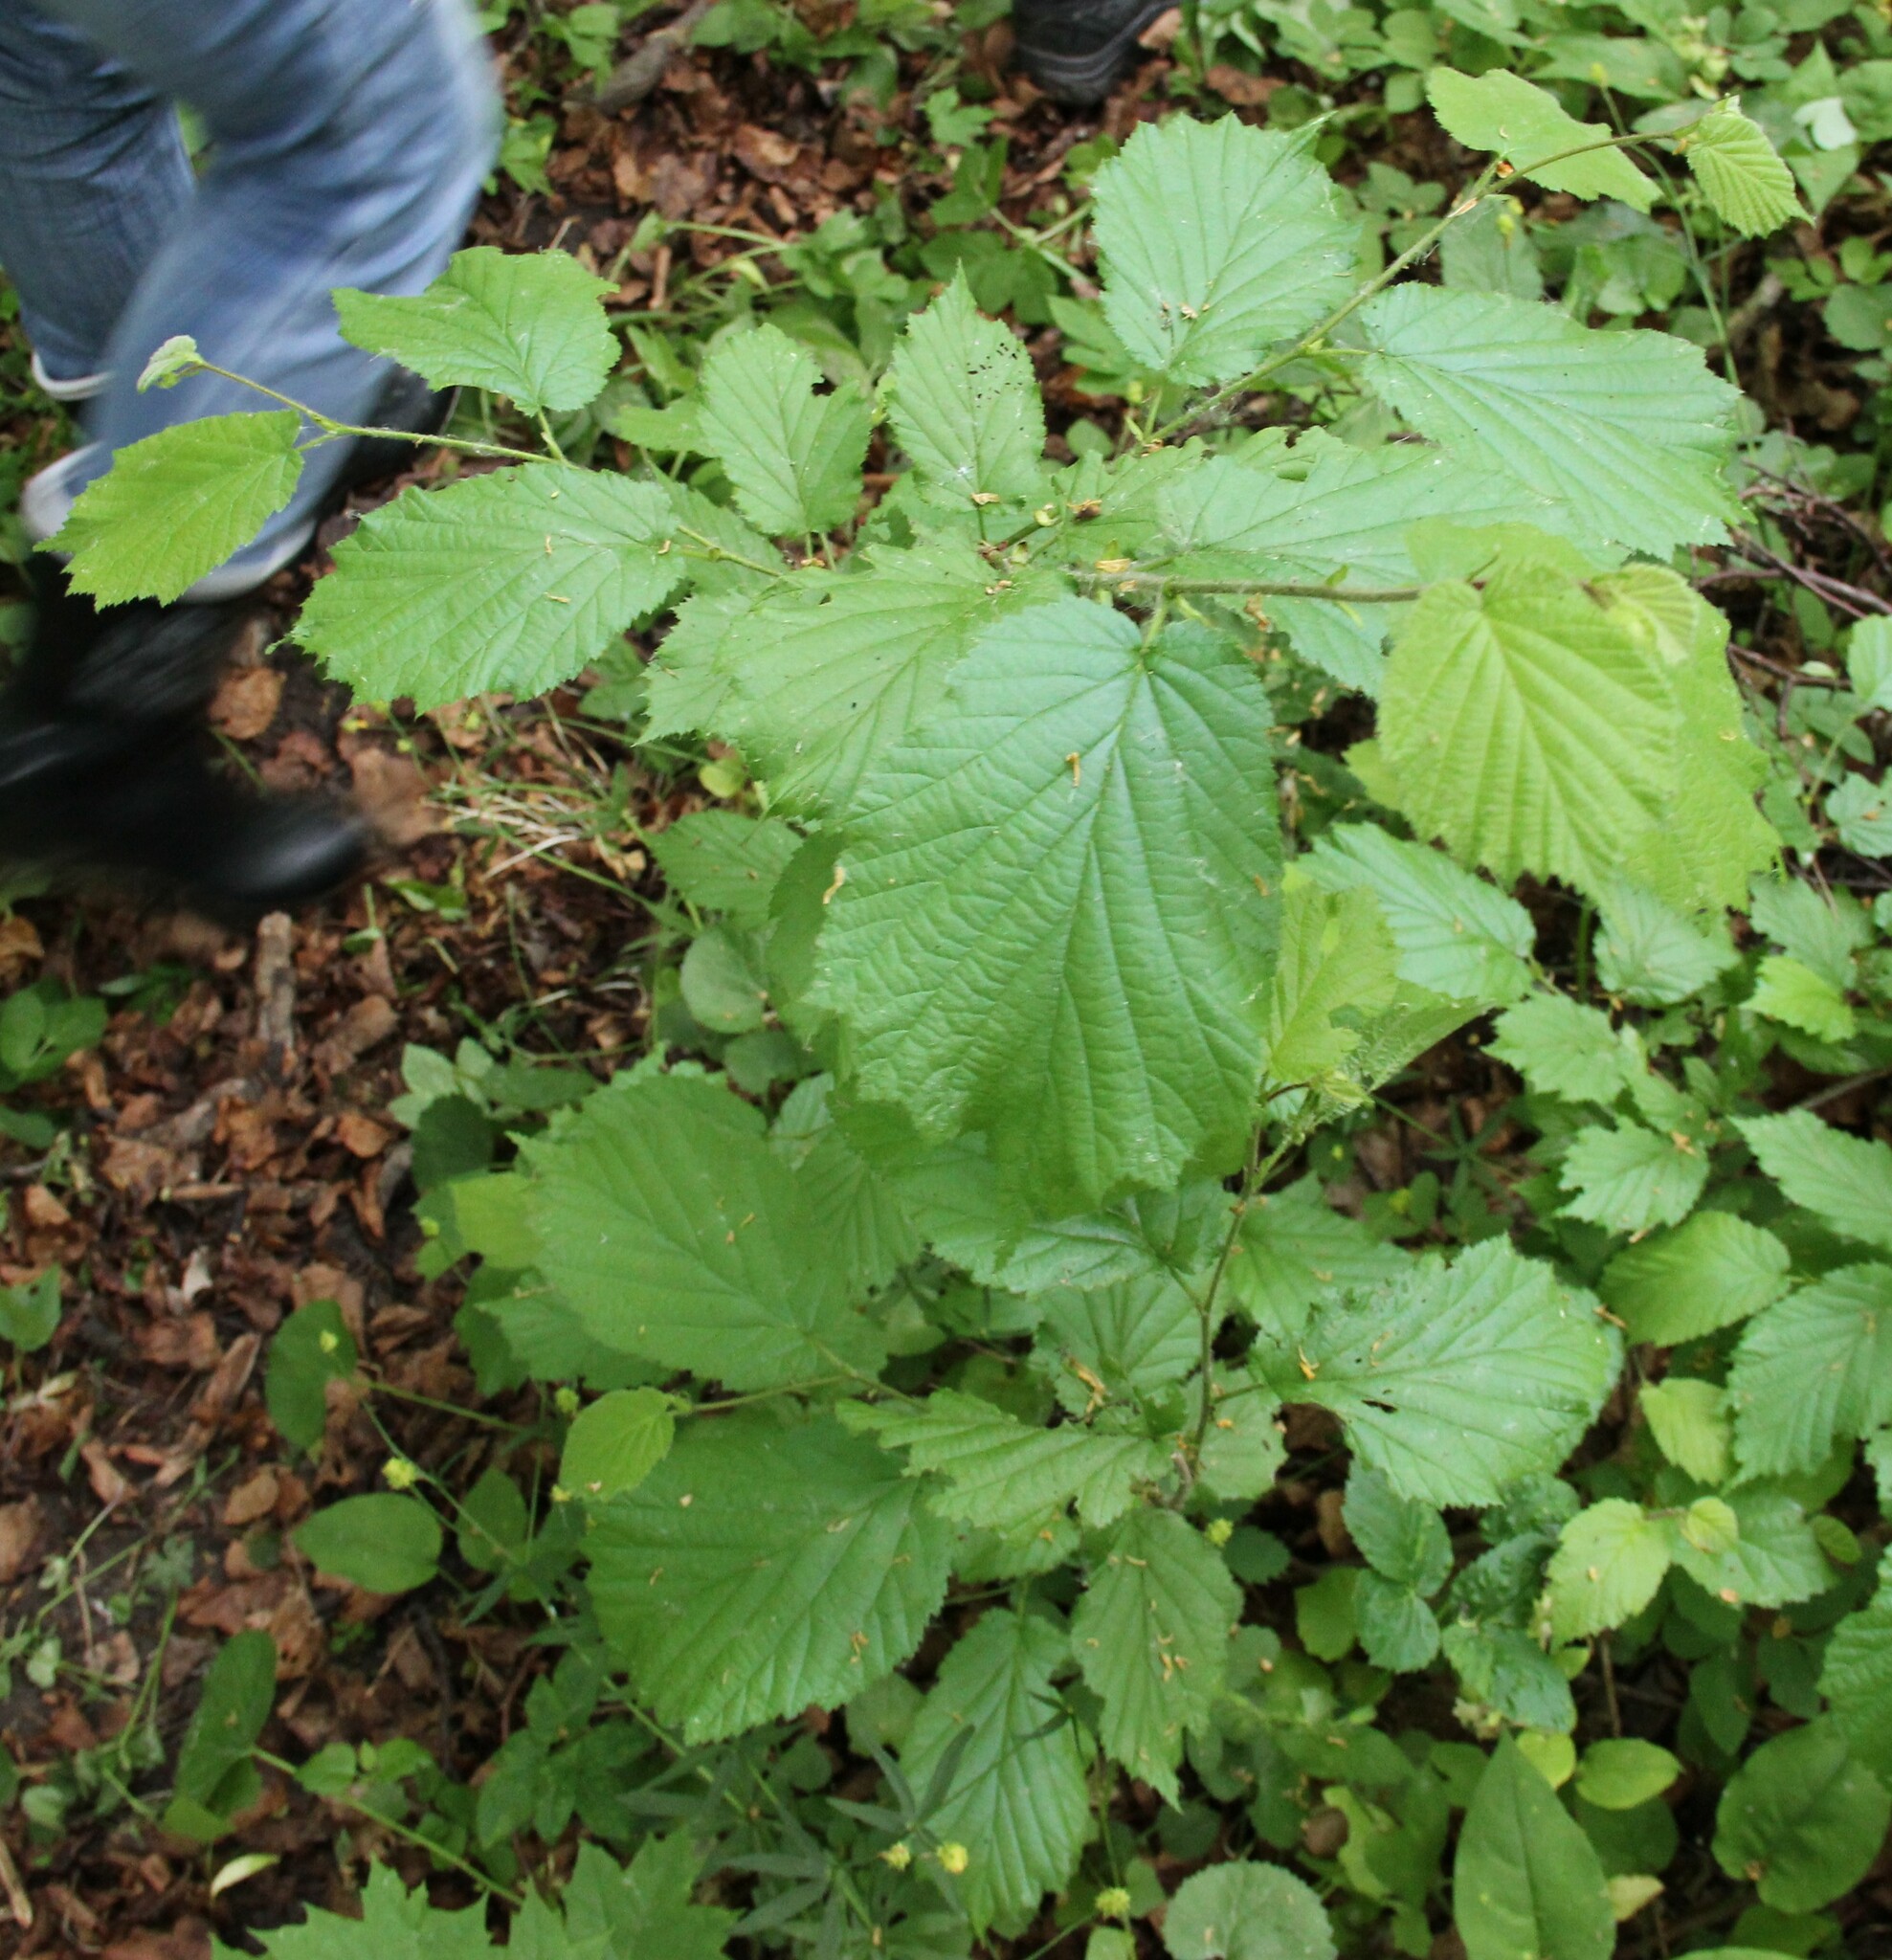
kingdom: Plantae
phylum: Tracheophyta
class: Magnoliopsida
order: Fagales
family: Betulaceae
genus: Corylus
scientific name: Corylus avellana
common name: European hazel
